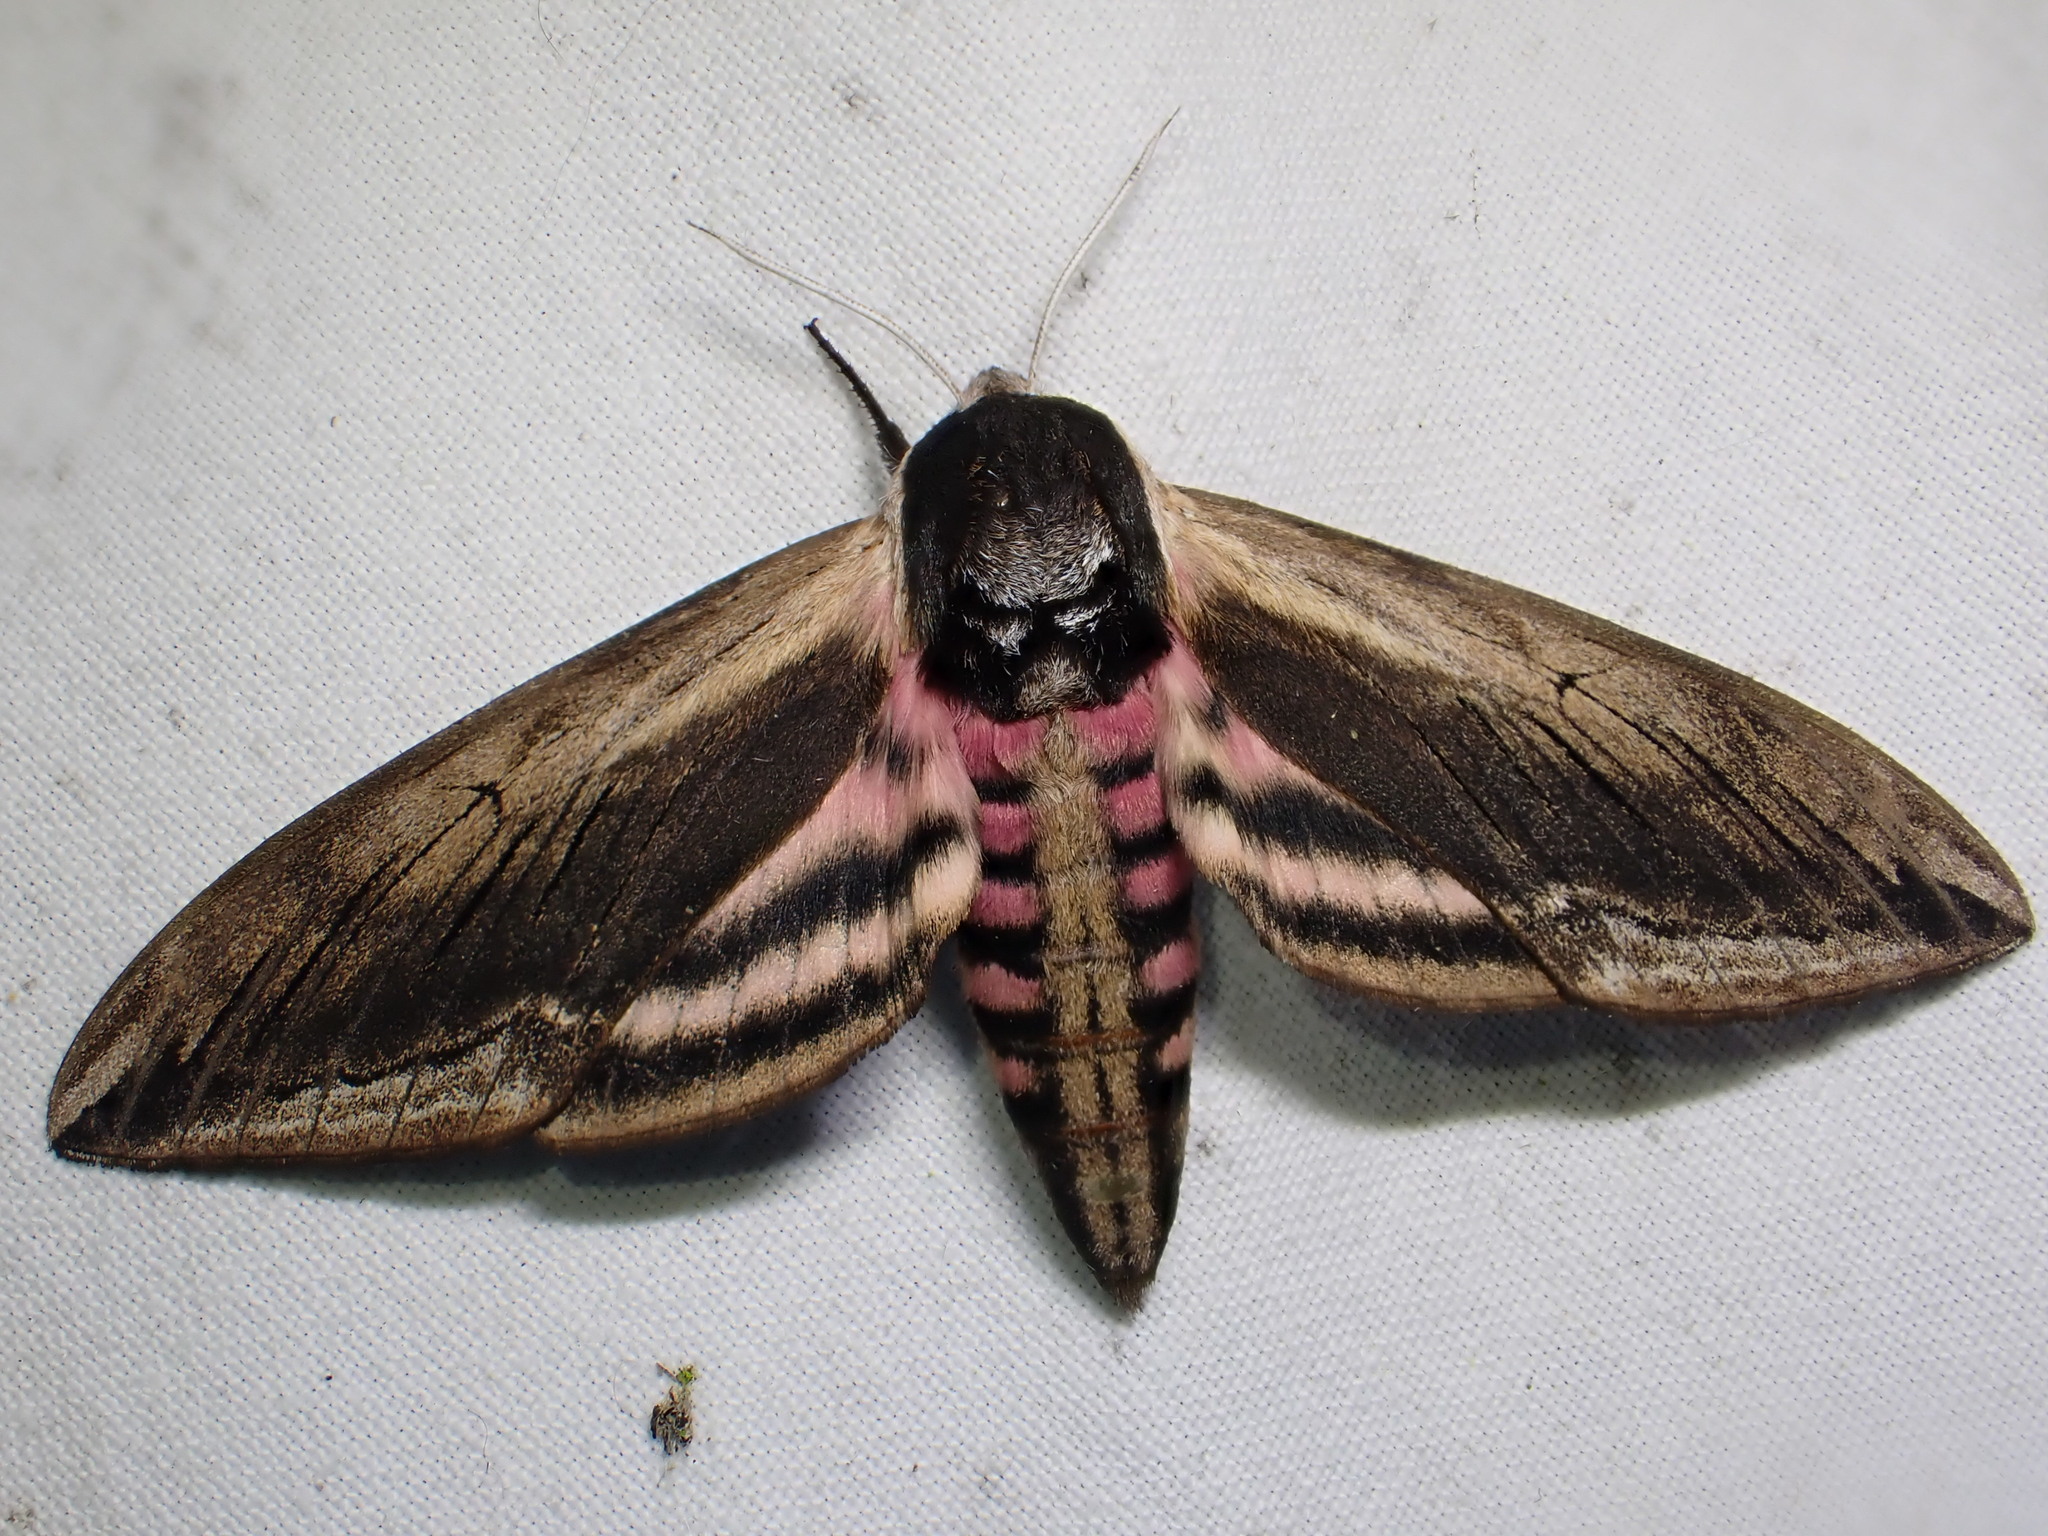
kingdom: Animalia
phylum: Arthropoda
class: Insecta
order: Lepidoptera
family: Sphingidae
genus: Sphinx
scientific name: Sphinx ligustri
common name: Privet hawk-moth
